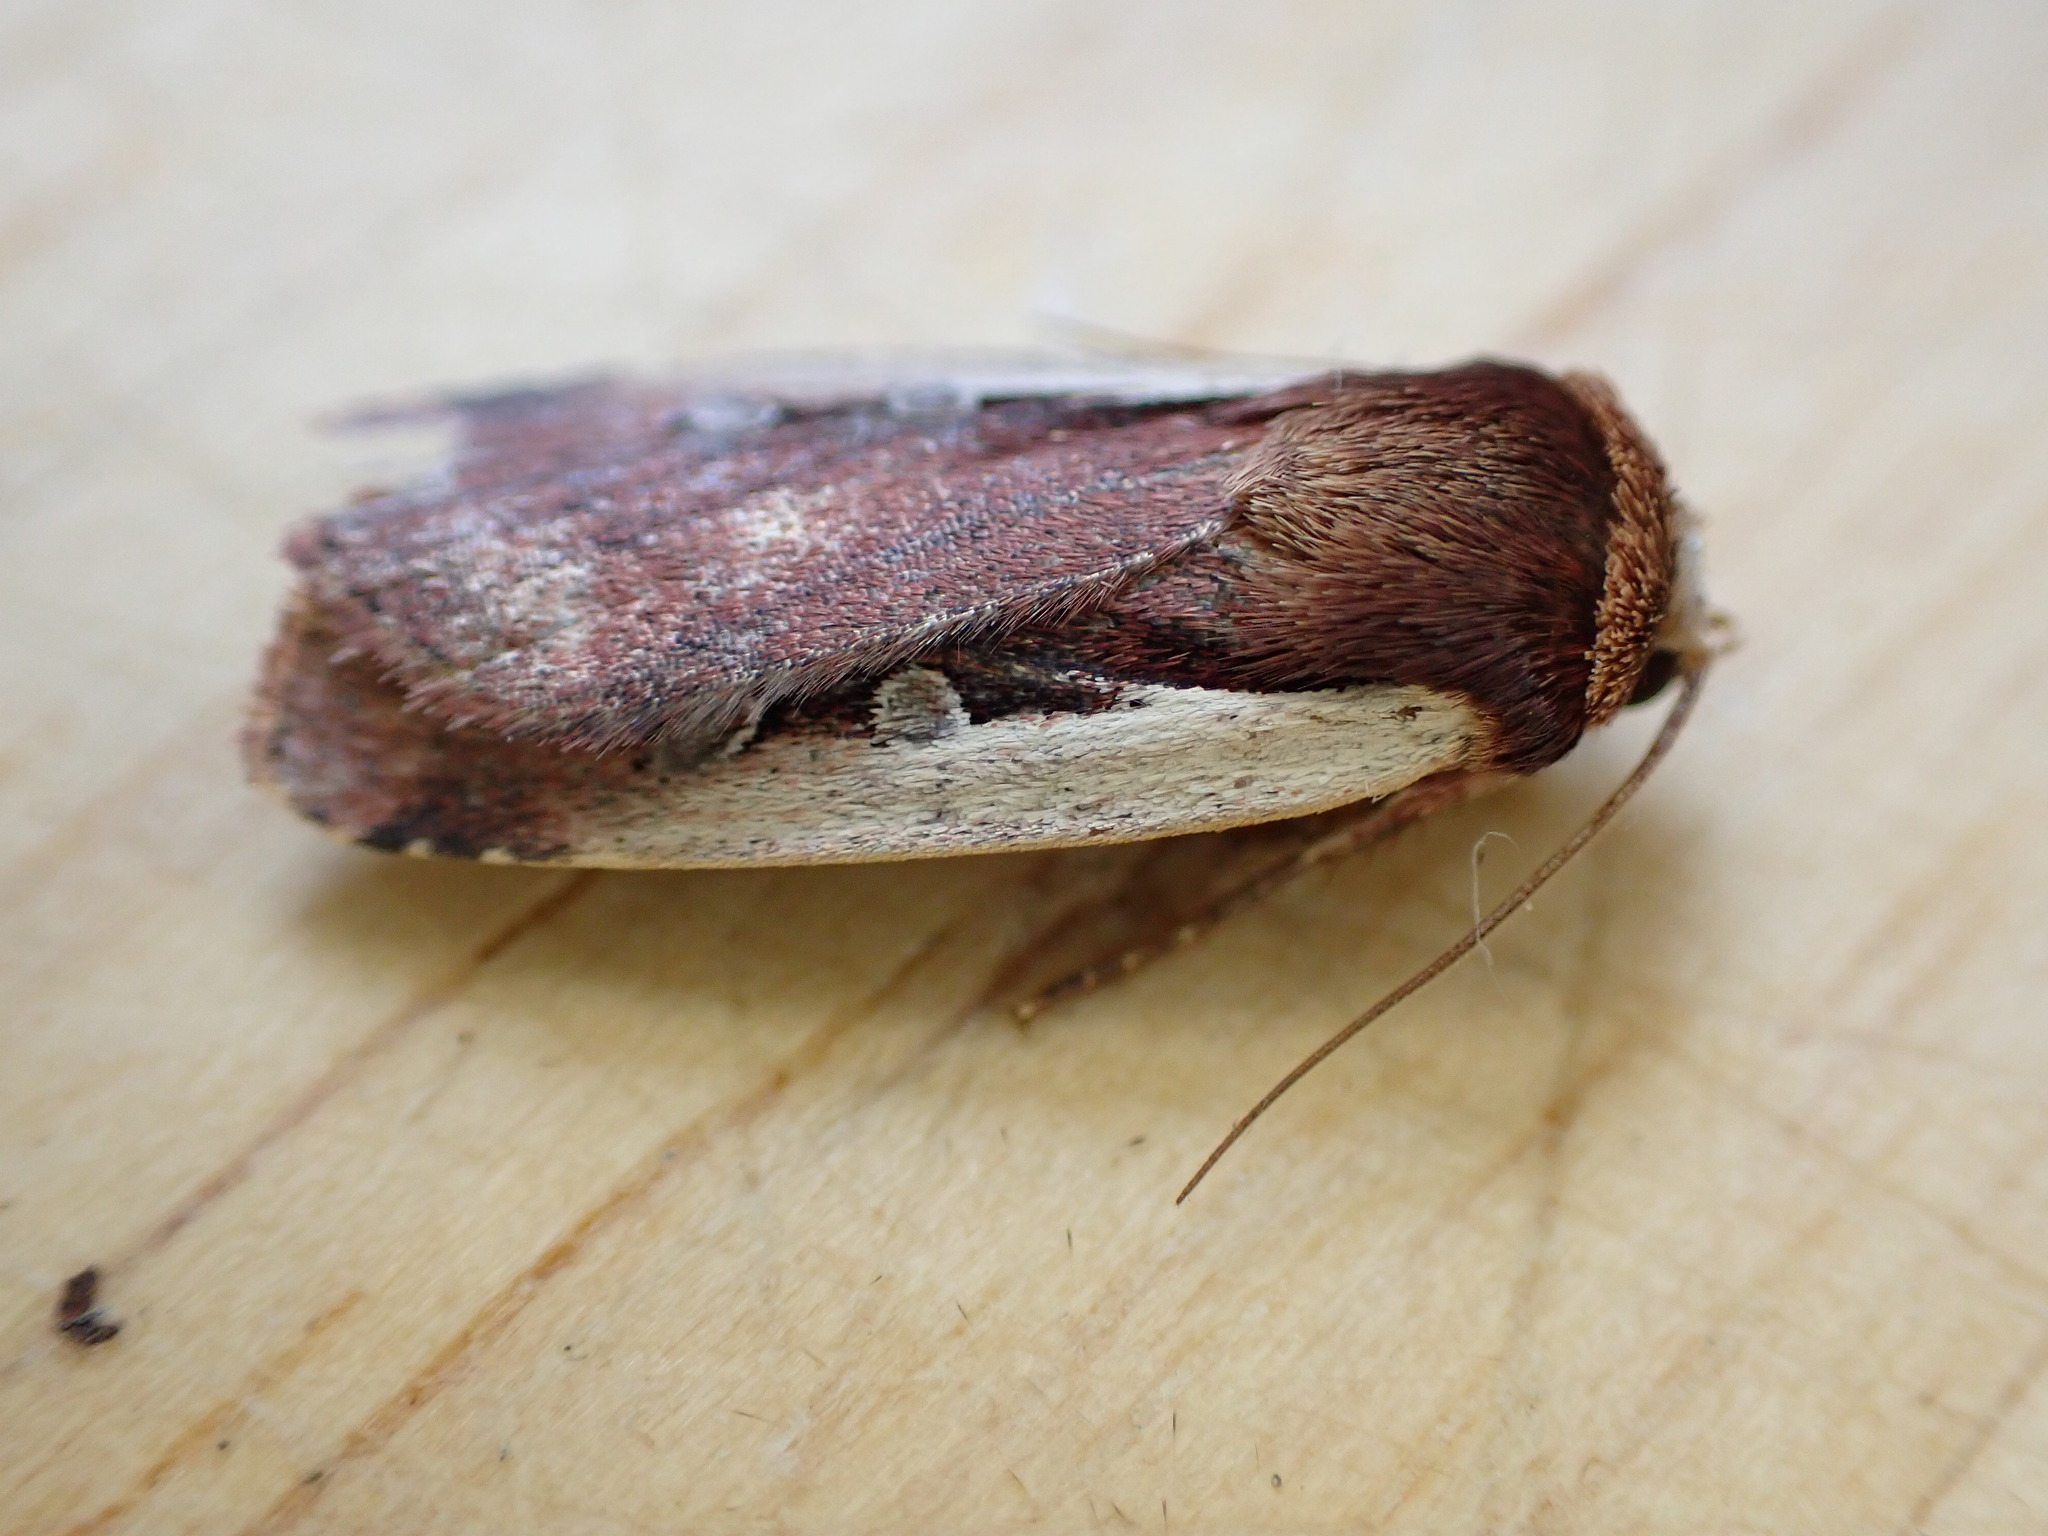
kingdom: Animalia
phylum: Arthropoda
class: Insecta
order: Lepidoptera
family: Noctuidae
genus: Ochropleura
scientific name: Ochropleura plecta
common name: Flame shoulder
